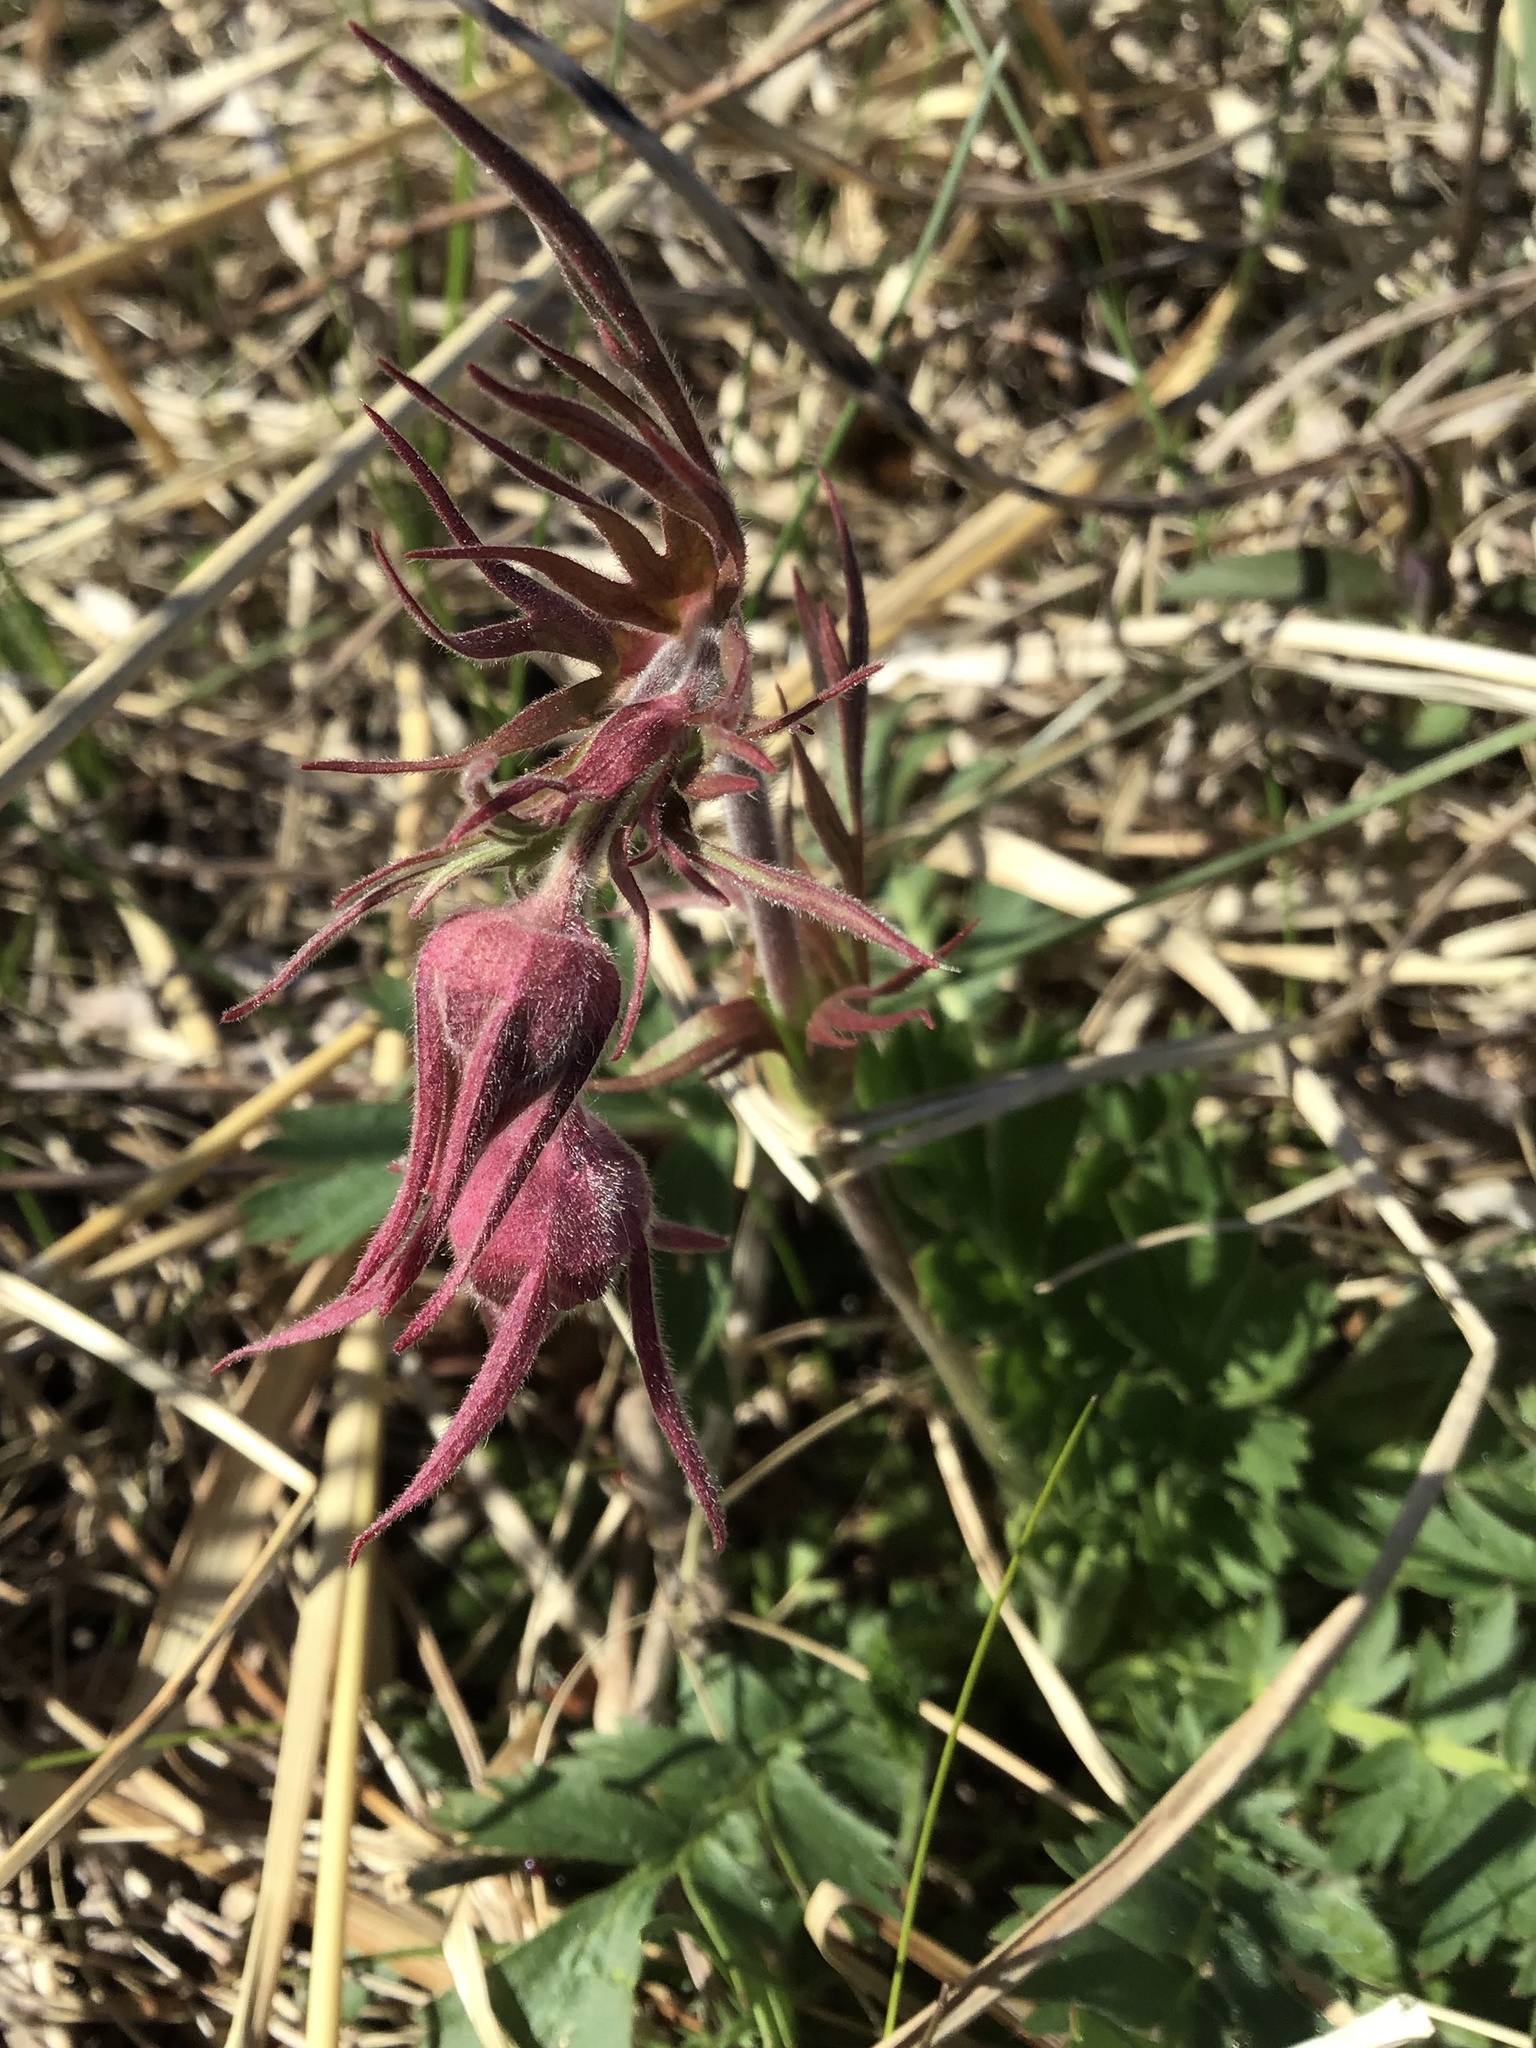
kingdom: Plantae
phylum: Tracheophyta
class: Magnoliopsida
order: Rosales
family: Rosaceae
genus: Geum
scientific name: Geum triflorum
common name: Old man's whiskers
